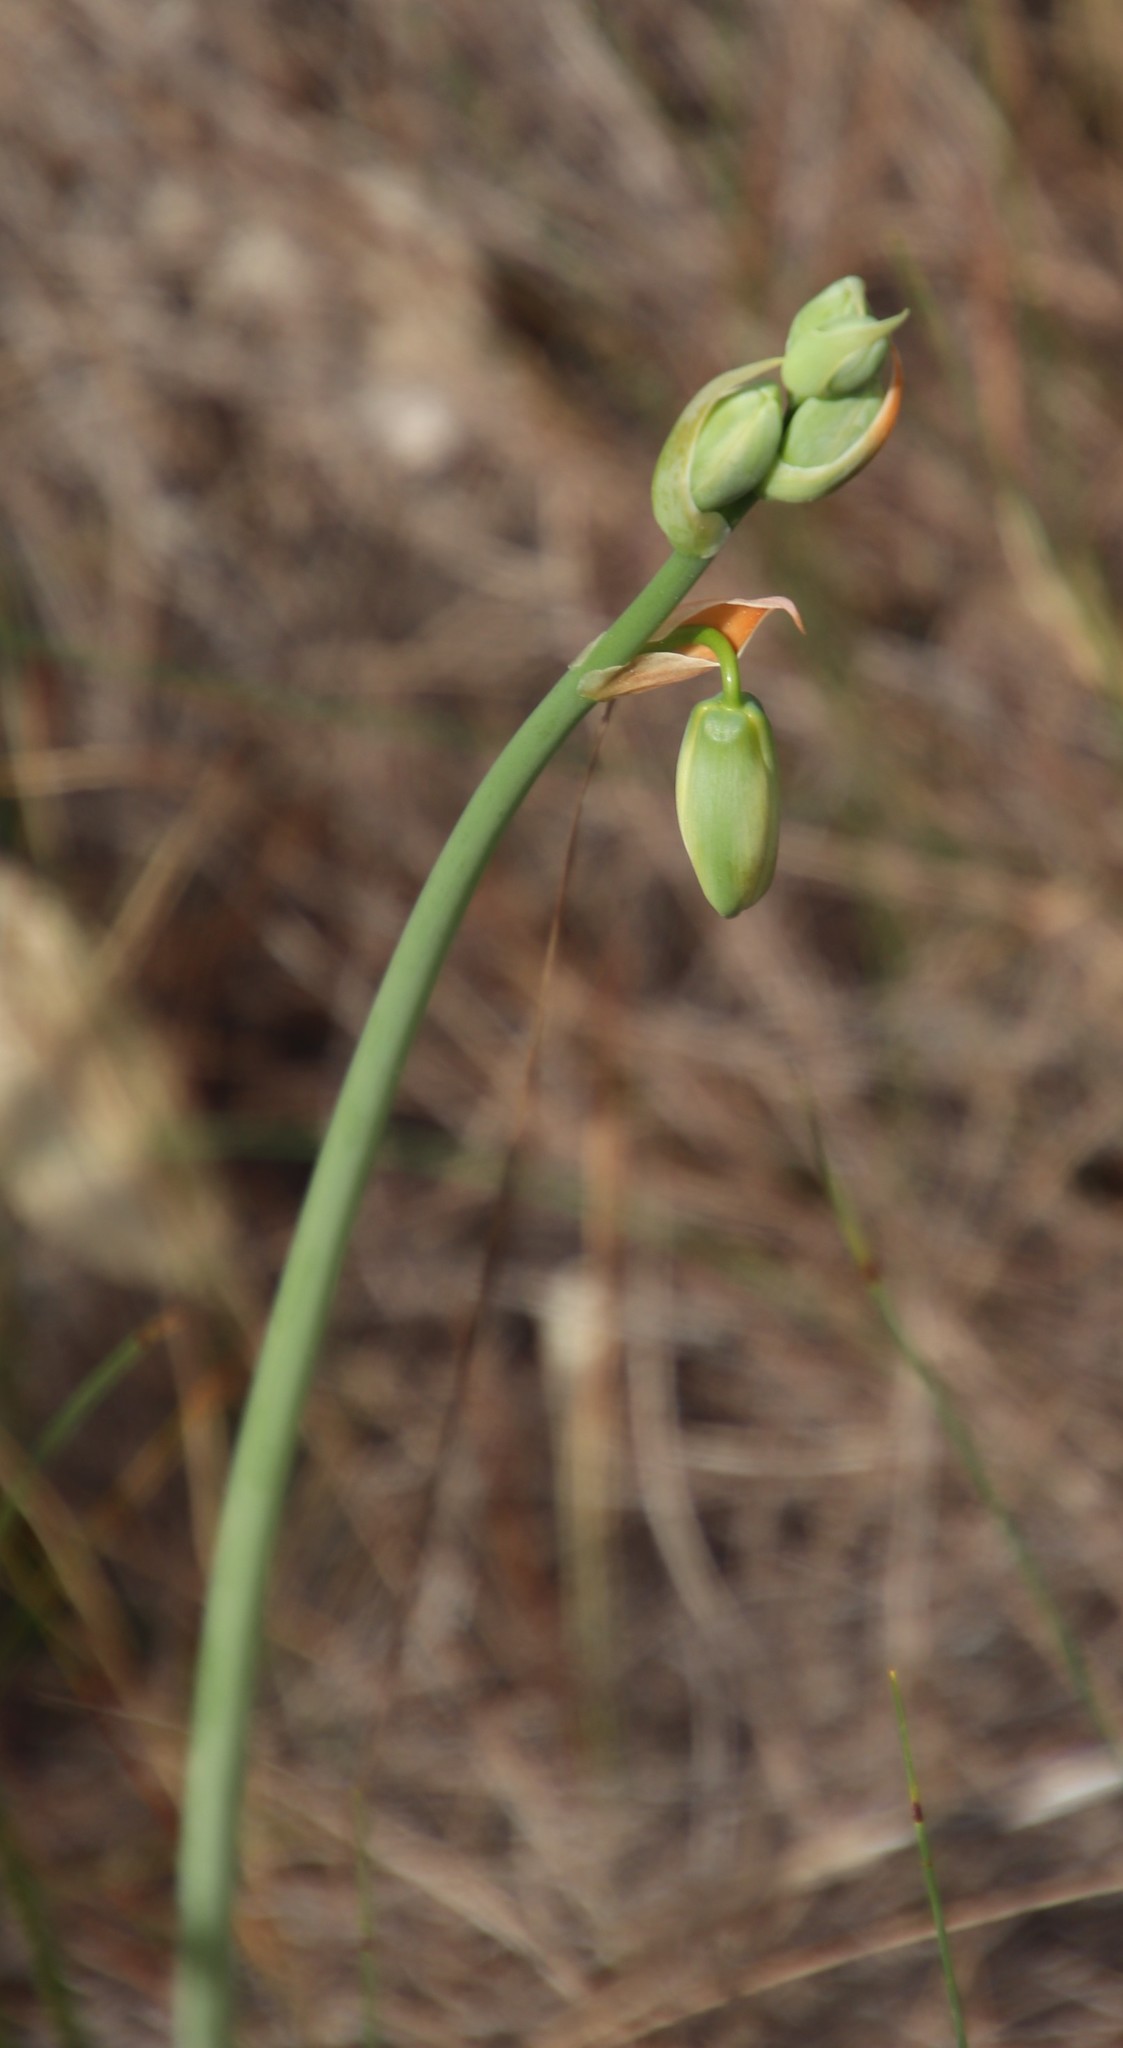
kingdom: Plantae
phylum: Tracheophyta
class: Liliopsida
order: Asparagales
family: Asparagaceae
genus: Albuca
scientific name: Albuca cooperi
